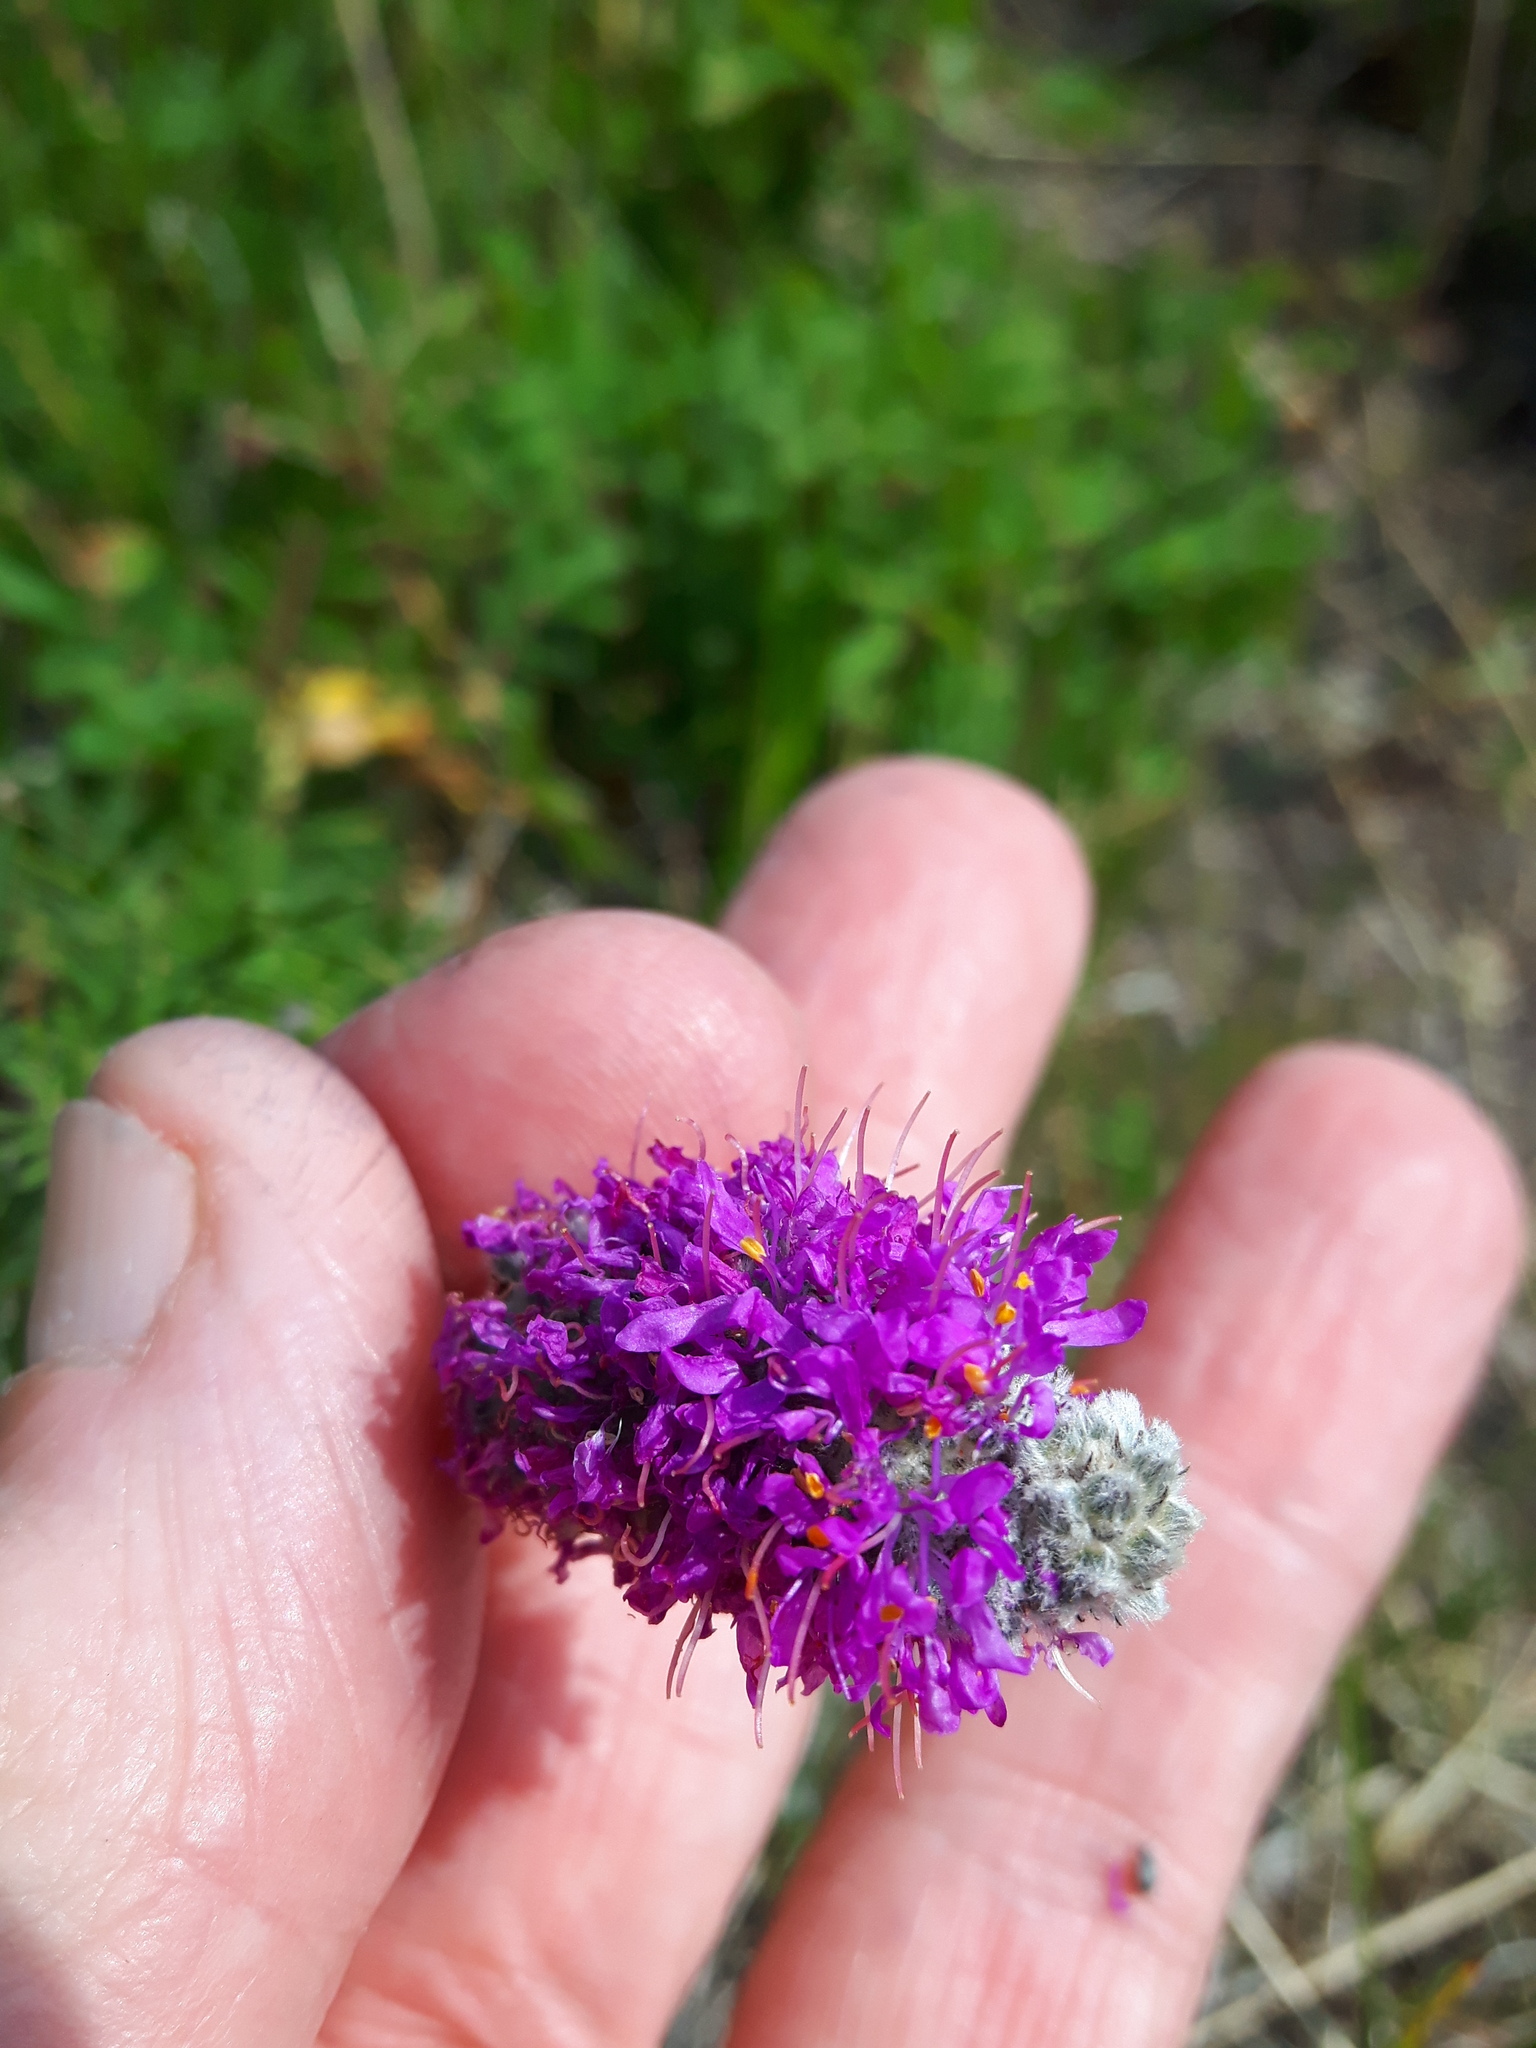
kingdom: Plantae
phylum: Tracheophyta
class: Magnoliopsida
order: Fabales
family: Fabaceae
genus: Dalea
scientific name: Dalea purpurea
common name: Purple prairie-clover
